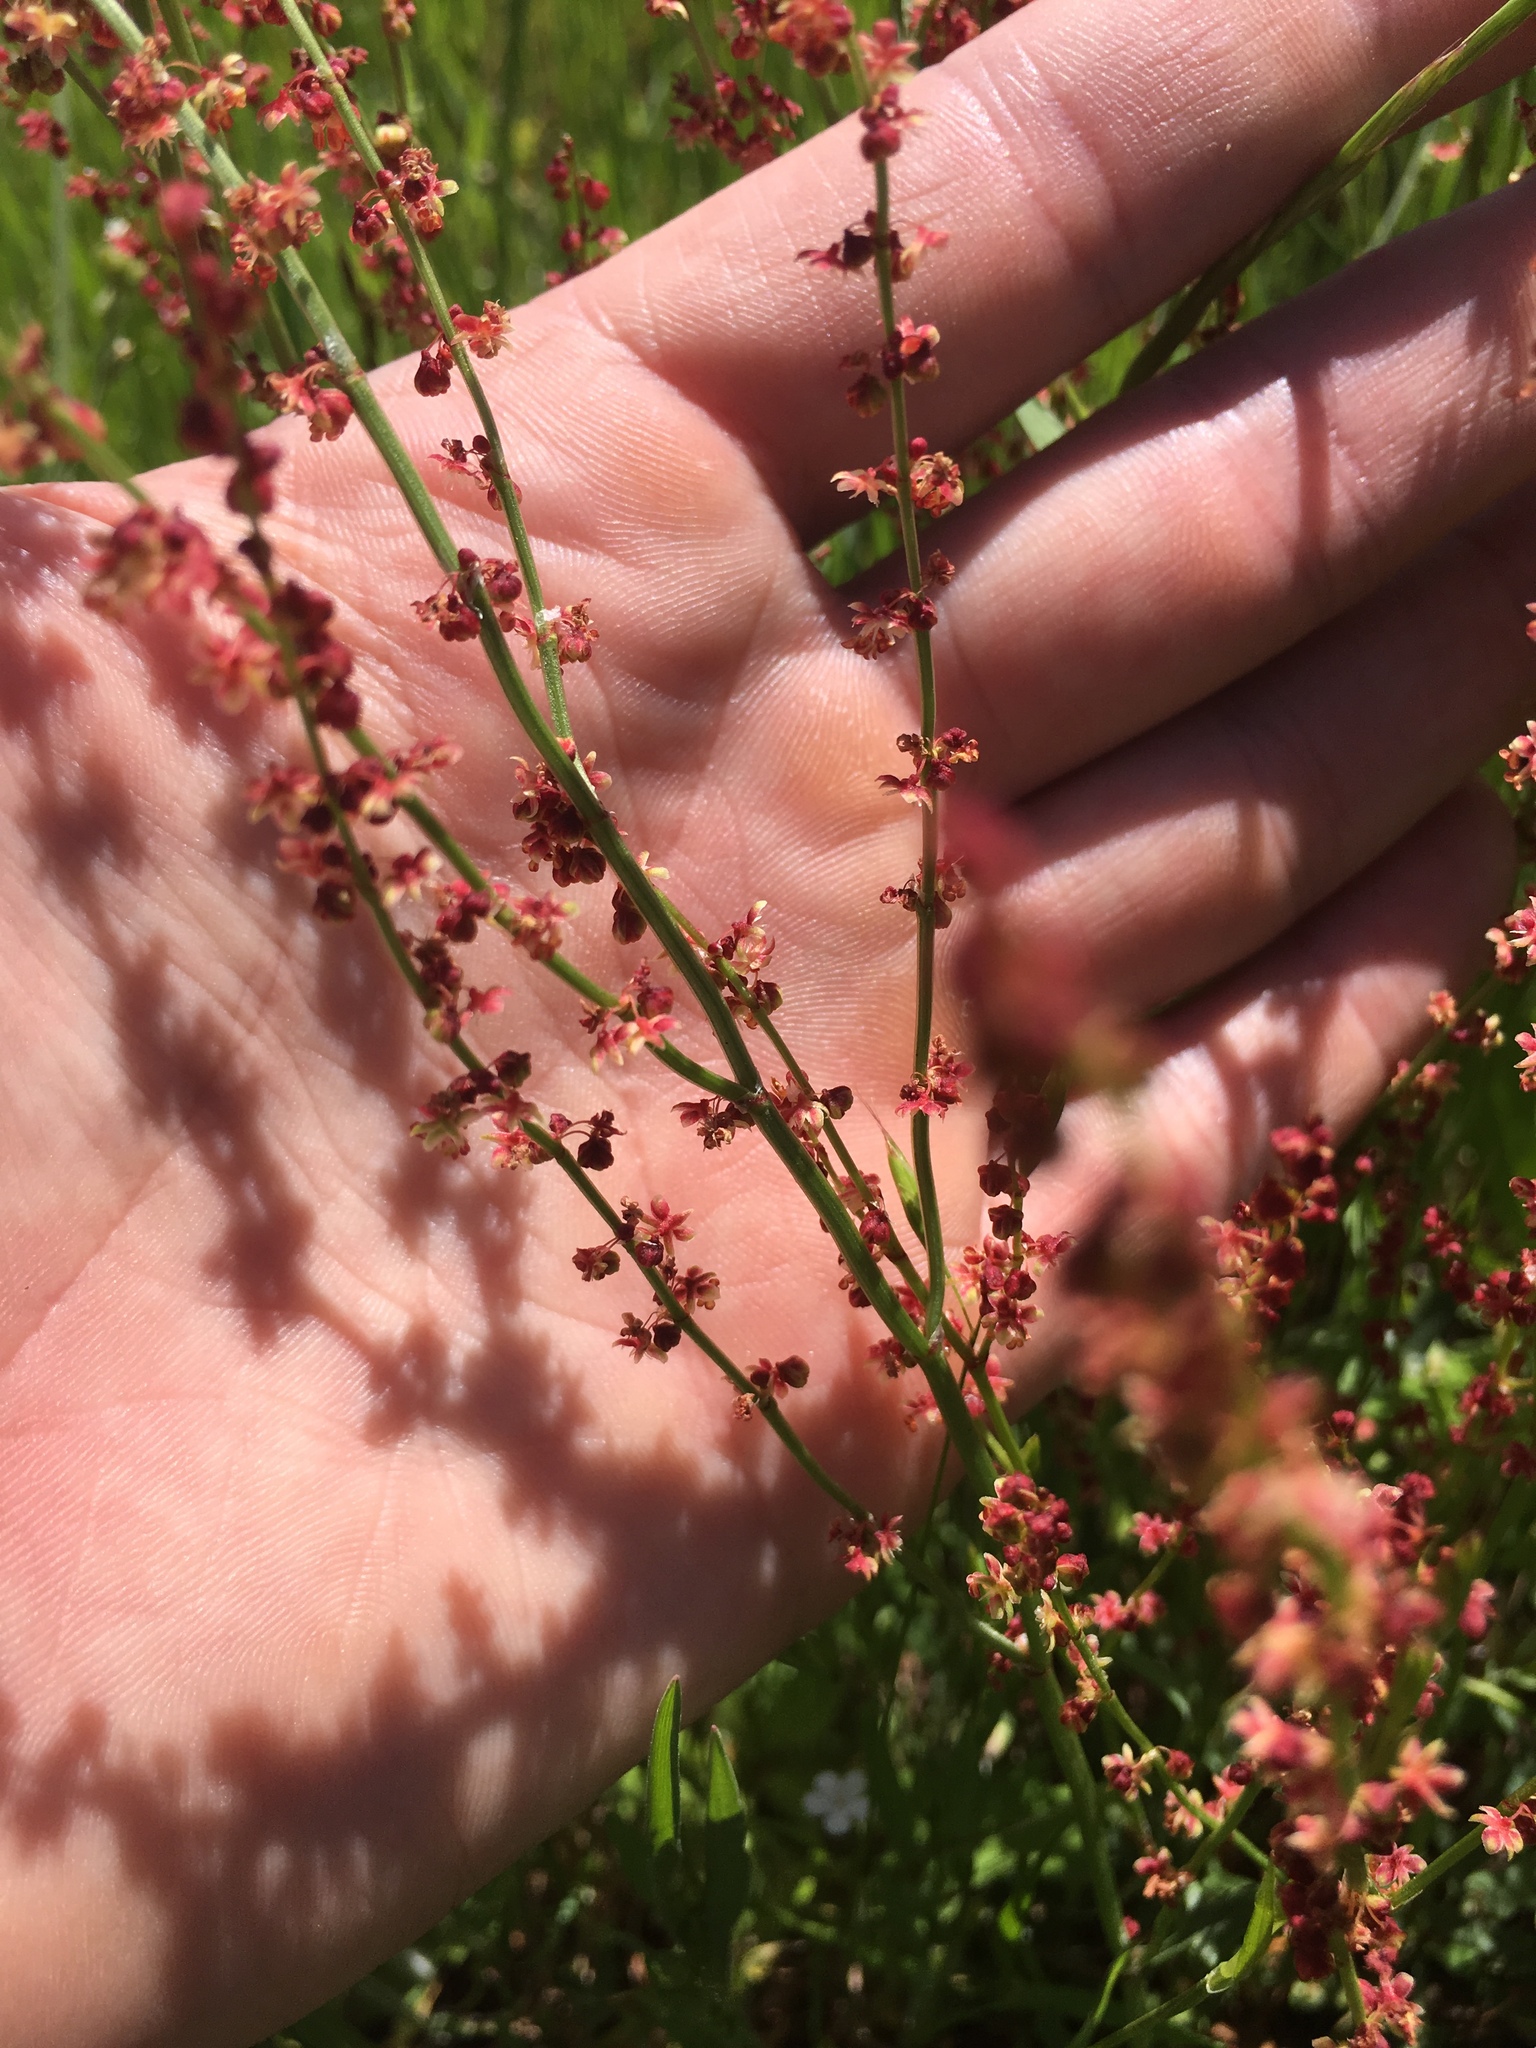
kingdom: Plantae
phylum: Tracheophyta
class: Magnoliopsida
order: Caryophyllales
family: Polygonaceae
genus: Rumex
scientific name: Rumex acetosella
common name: Common sheep sorrel
